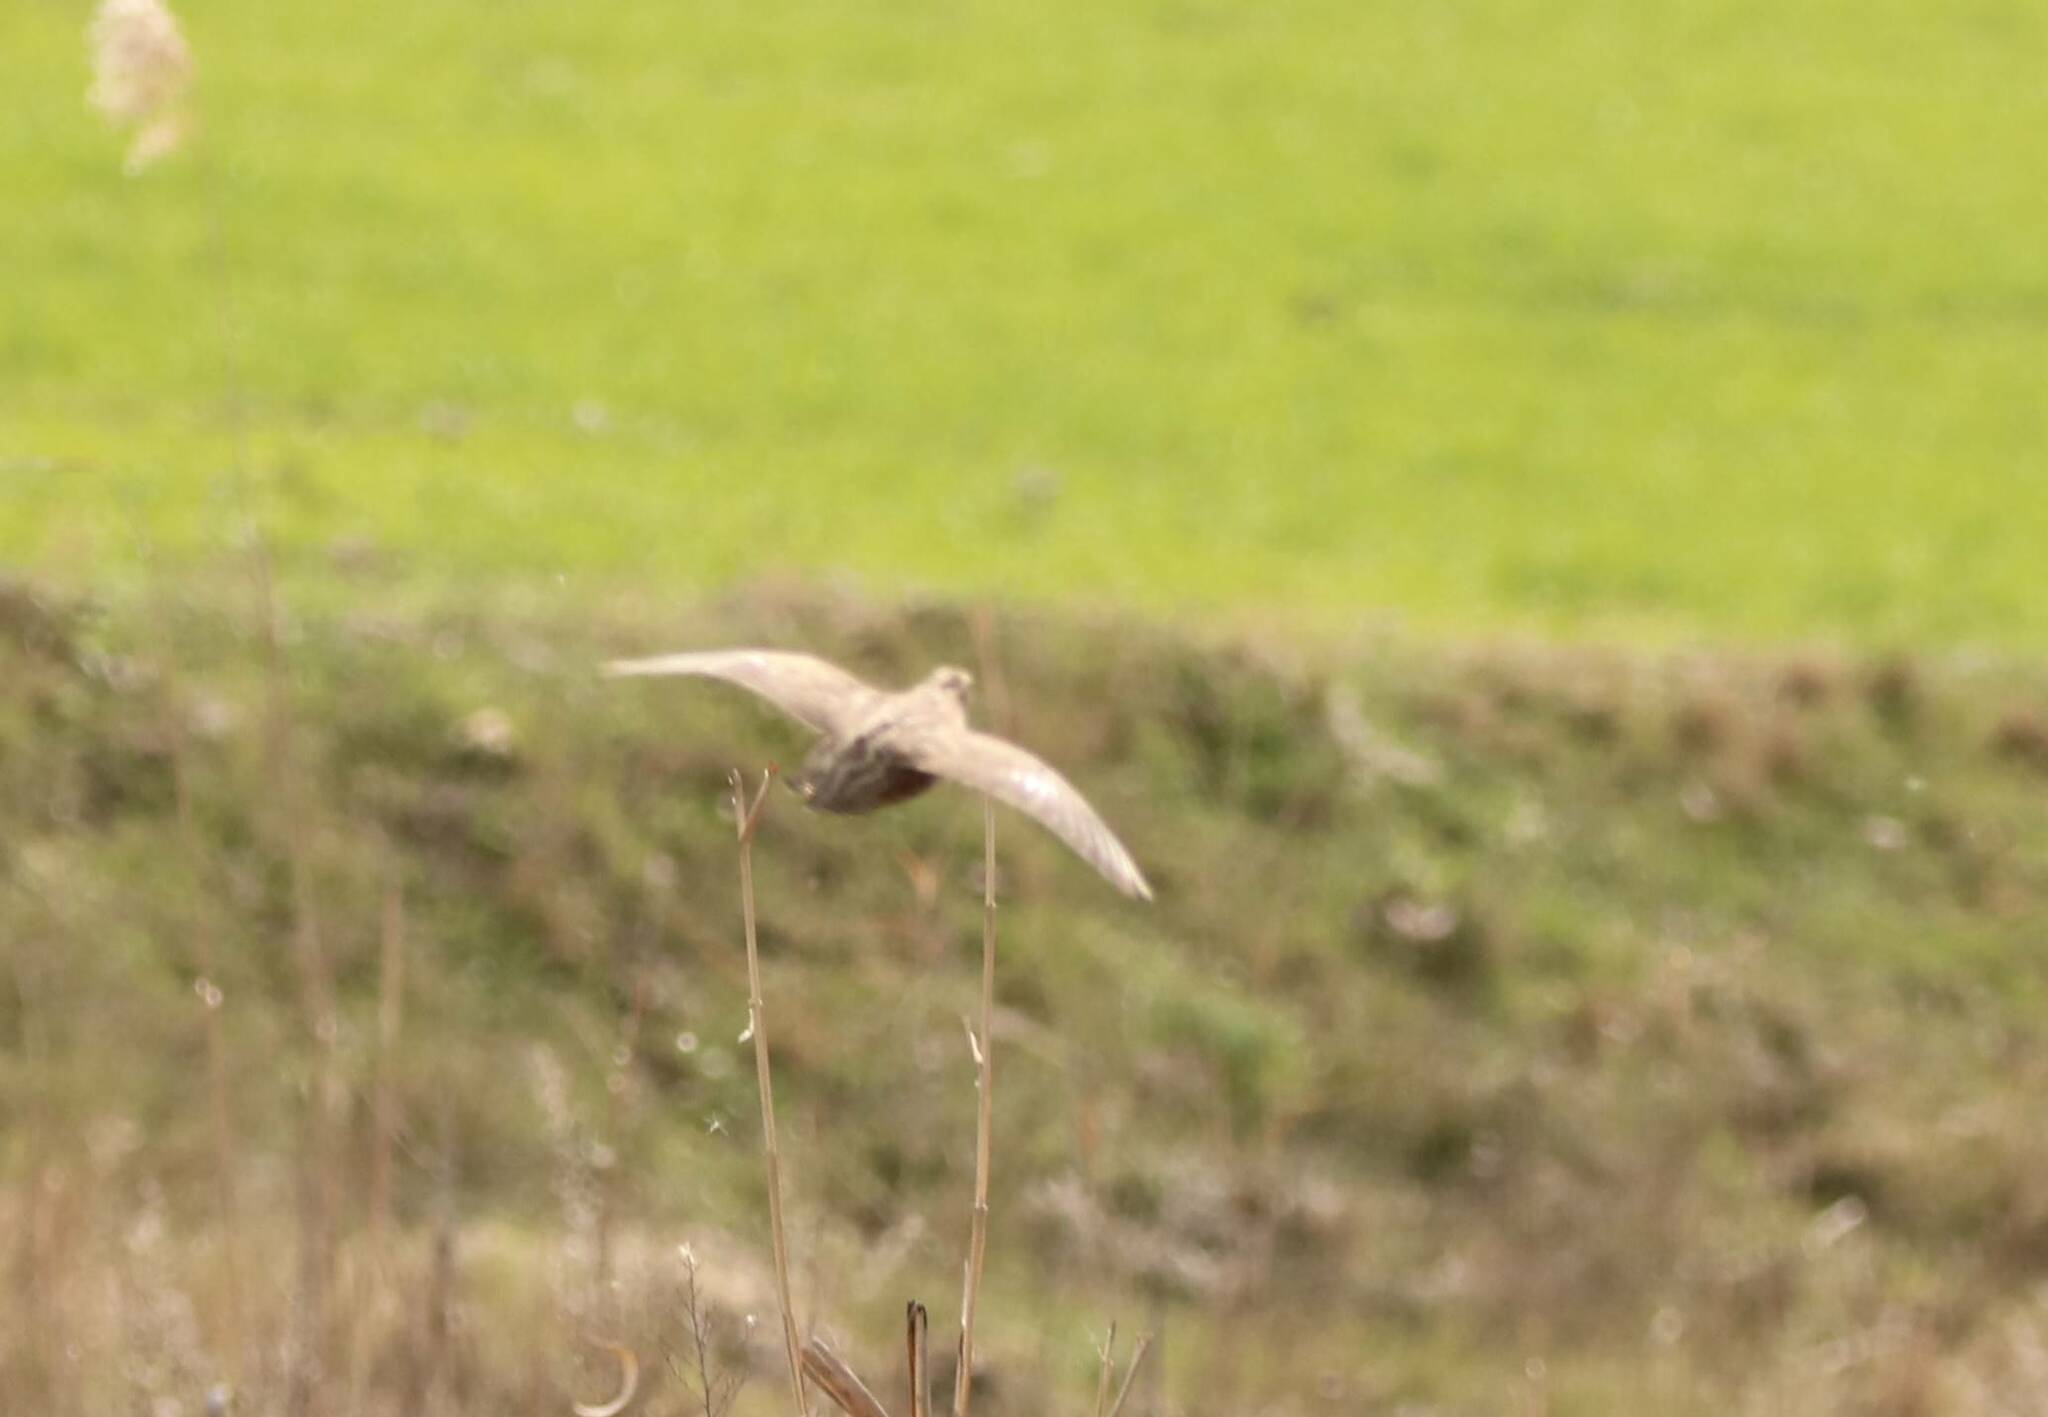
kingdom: Animalia
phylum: Chordata
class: Aves
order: Galliformes
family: Phasianidae
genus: Coturnix
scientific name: Coturnix coturnix
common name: Common quail
